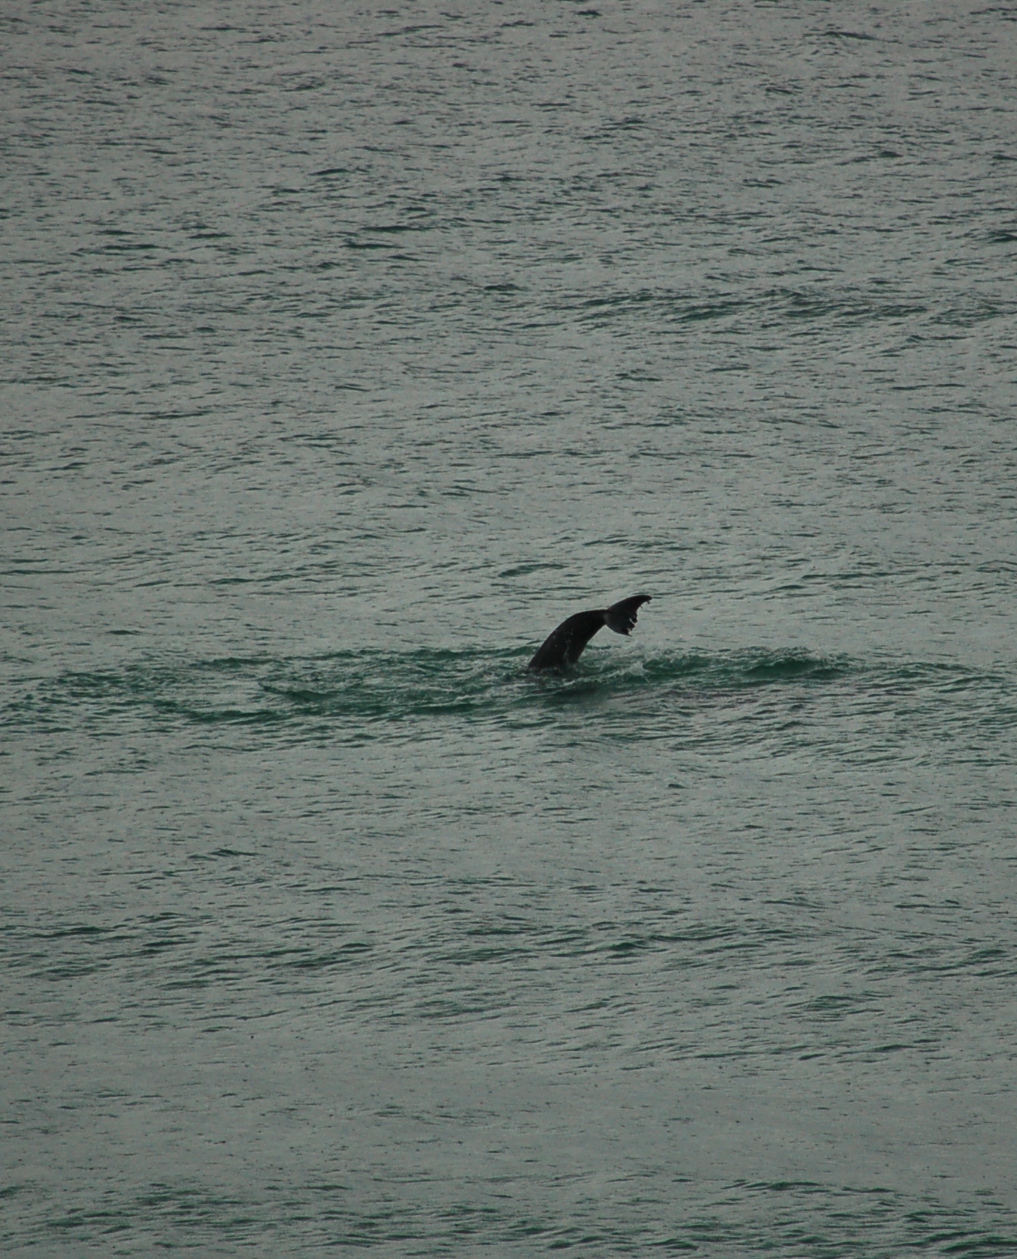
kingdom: Animalia
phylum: Chordata
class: Mammalia
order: Cetacea
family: Delphinidae
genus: Tursiops
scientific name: Tursiops truncatus
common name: Bottlenose dolphin
